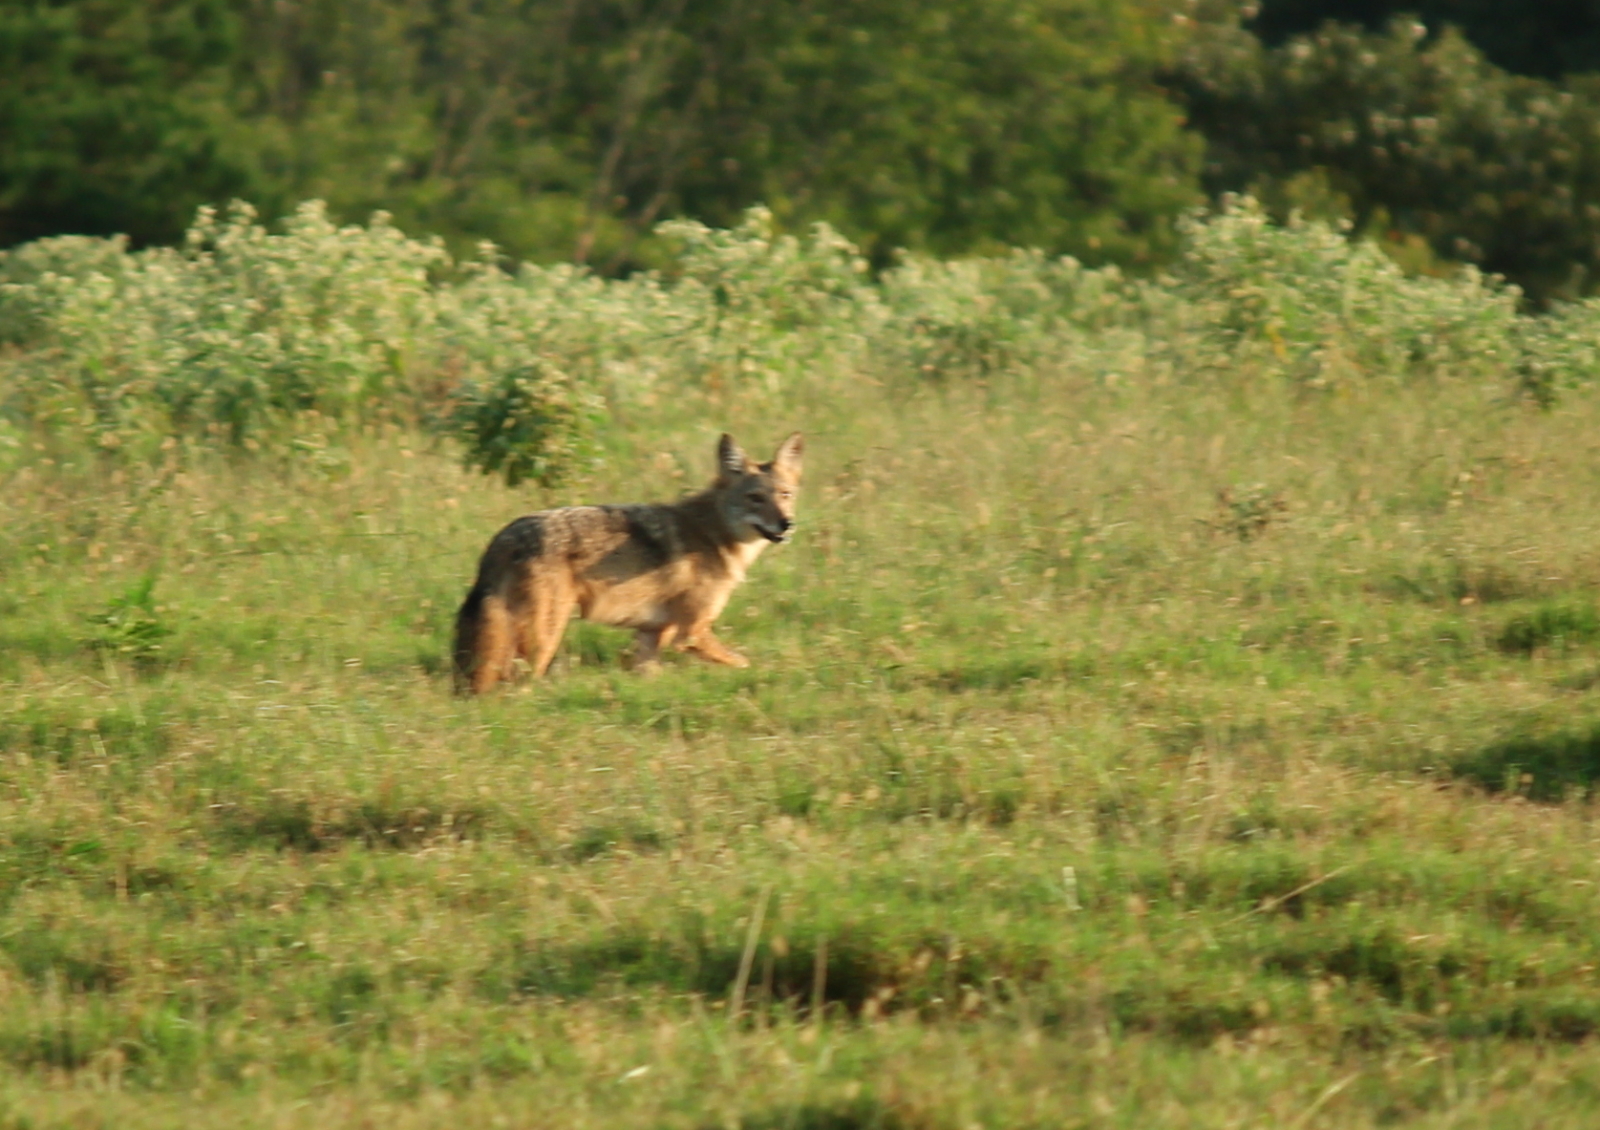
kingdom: Animalia
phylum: Chordata
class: Mammalia
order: Carnivora
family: Canidae
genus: Canis
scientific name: Canis latrans
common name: Coyote
